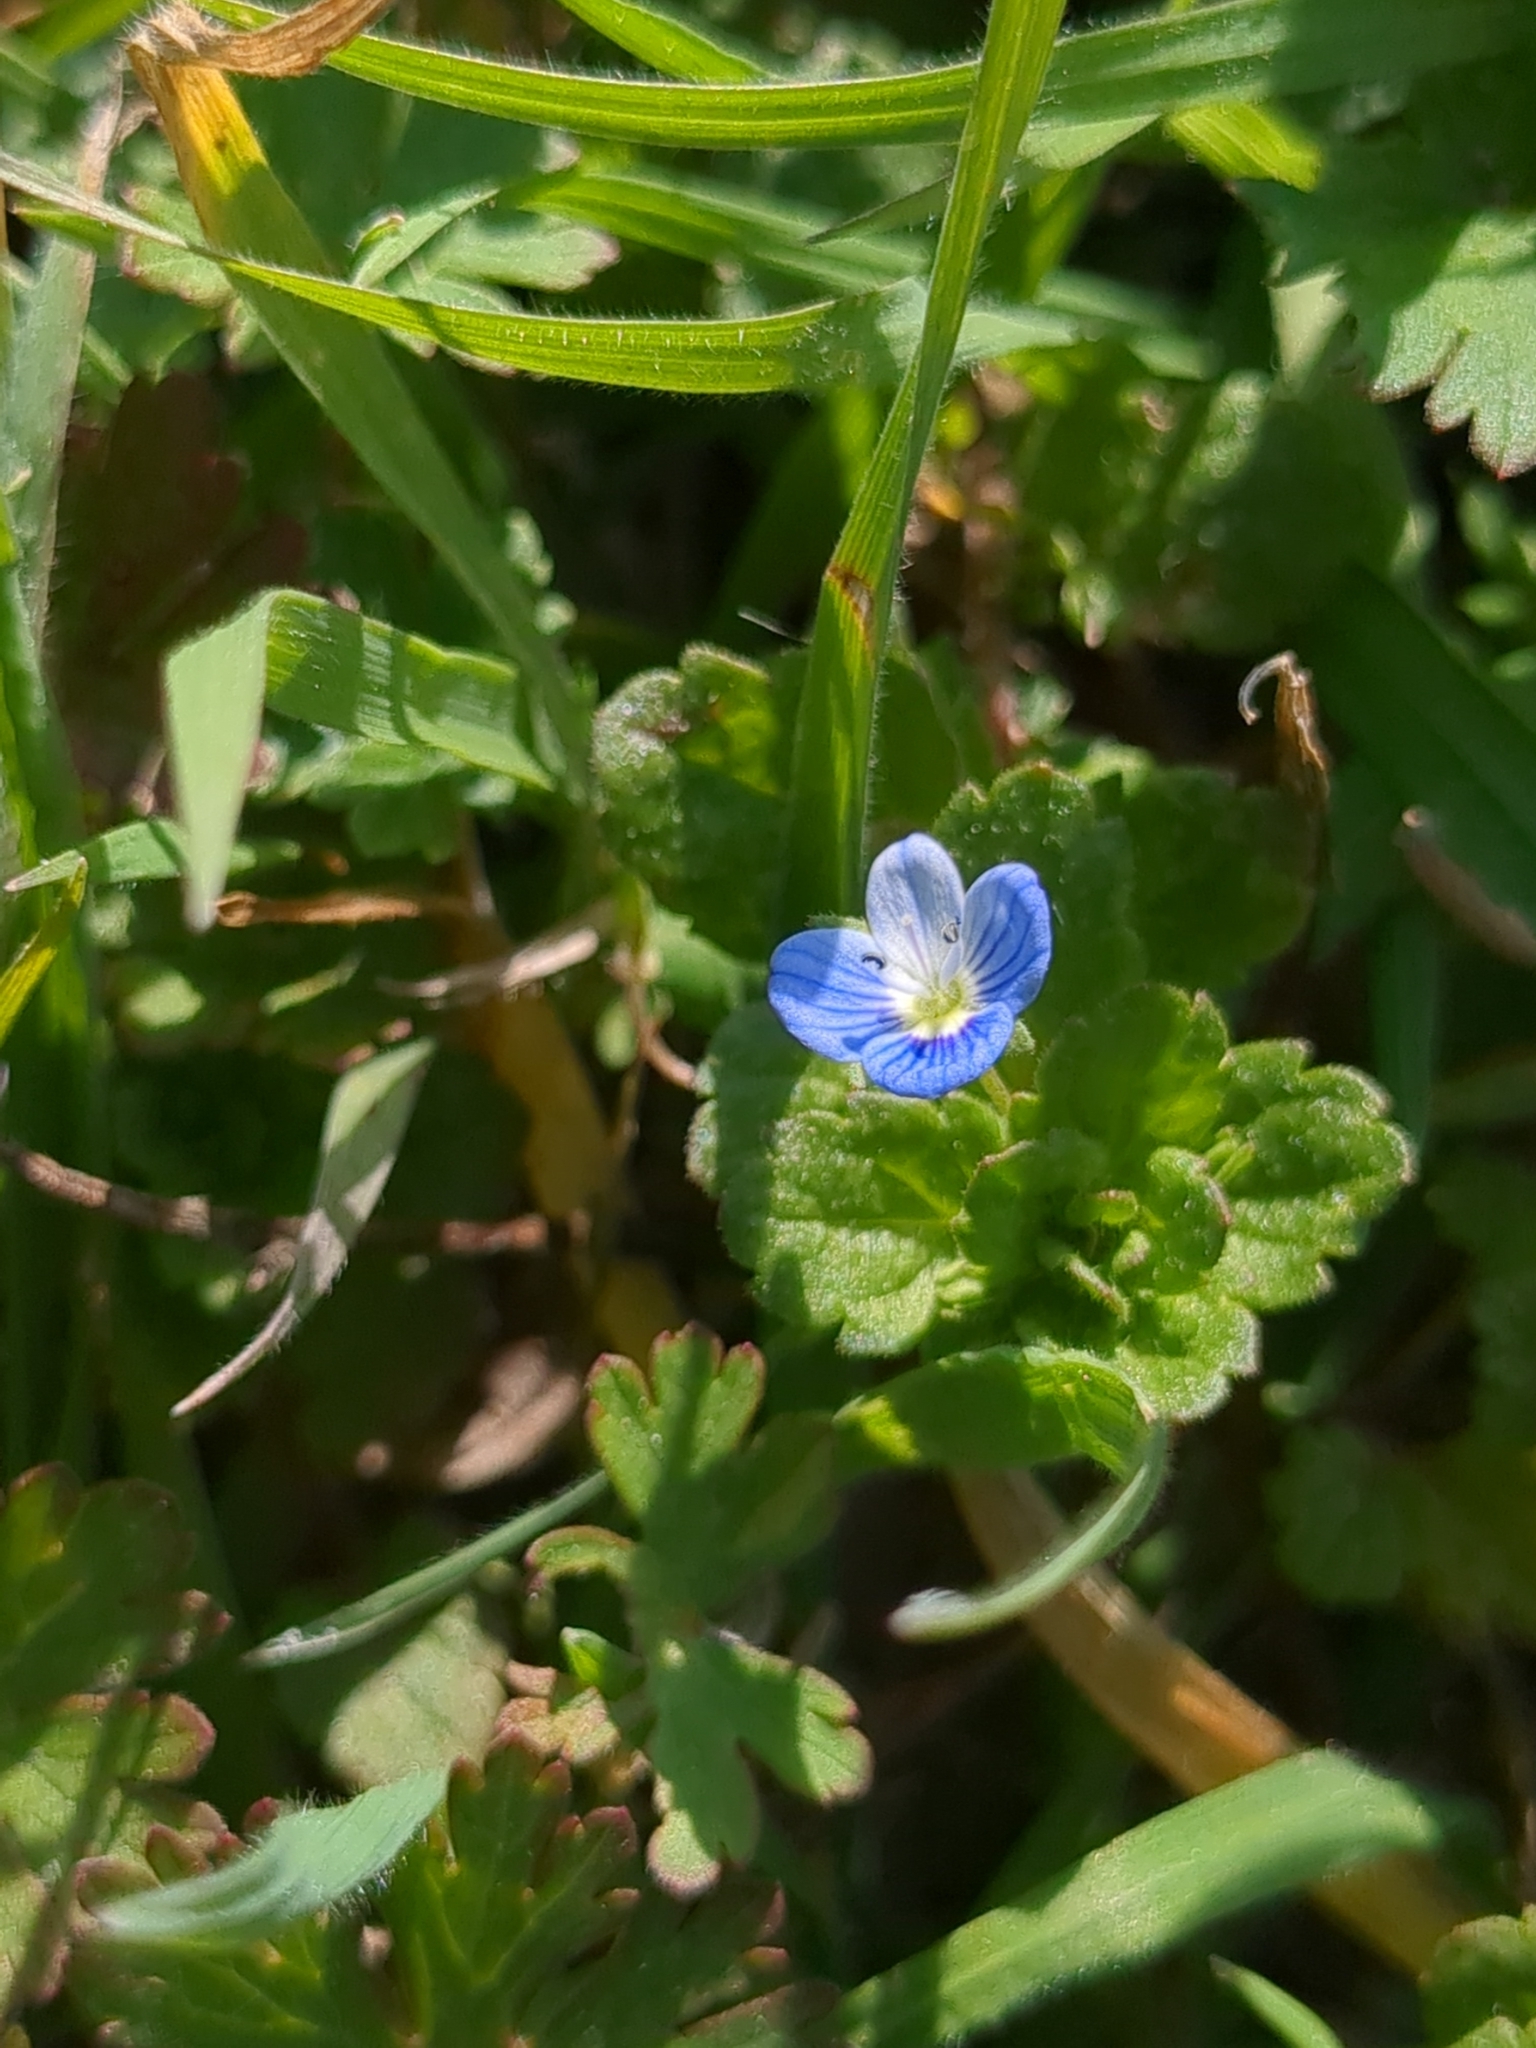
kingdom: Plantae
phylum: Tracheophyta
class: Magnoliopsida
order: Lamiales
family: Plantaginaceae
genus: Veronica
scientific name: Veronica persica
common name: Common field-speedwell
